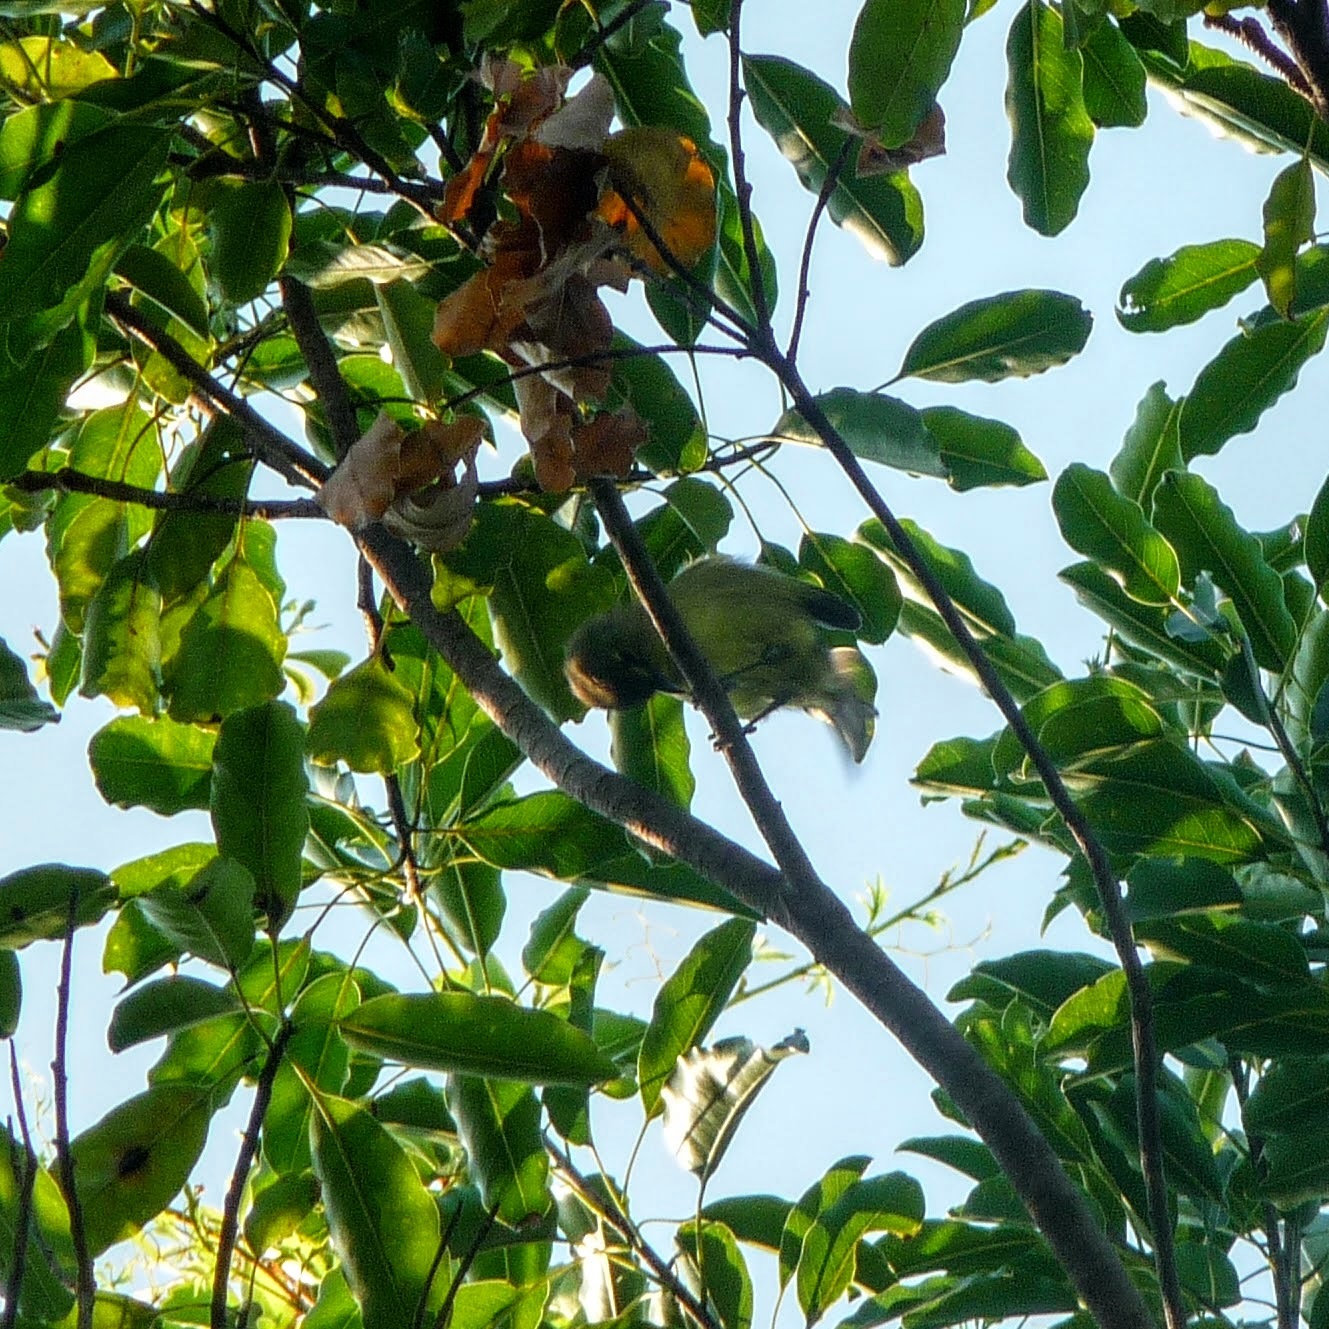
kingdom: Animalia
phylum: Chordata
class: Aves
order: Passeriformes
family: Vireonidae
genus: Vireo
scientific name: Vireo crassirostris
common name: Thick-billed vireo
